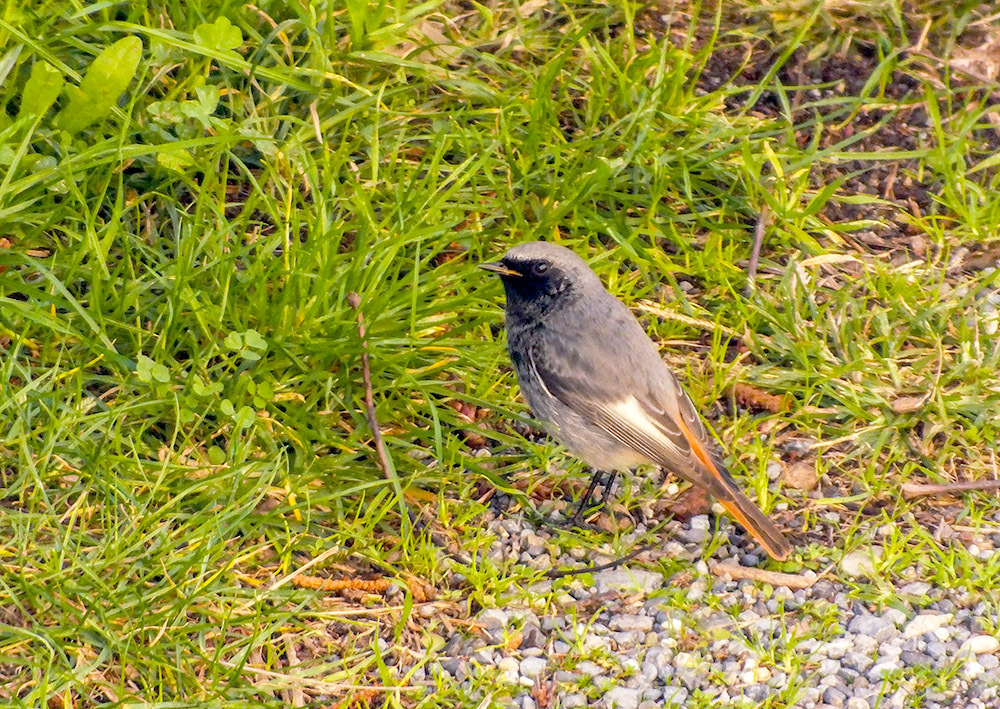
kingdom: Animalia
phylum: Chordata
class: Aves
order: Passeriformes
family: Muscicapidae
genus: Phoenicurus
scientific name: Phoenicurus ochruros
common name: Black redstart
